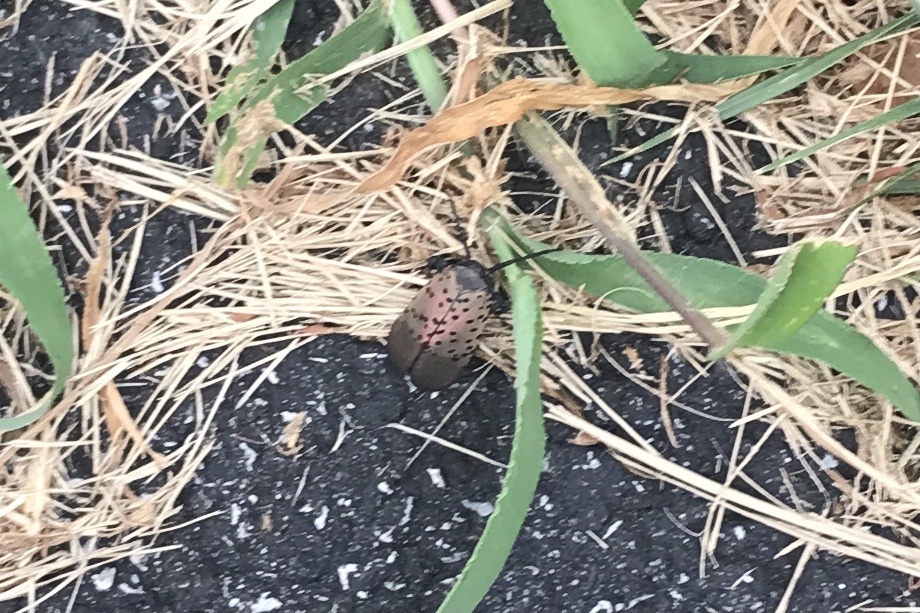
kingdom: Animalia
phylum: Arthropoda
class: Insecta
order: Hemiptera
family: Fulgoridae
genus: Lycorma
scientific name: Lycorma delicatula
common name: Spotted lanternfly
